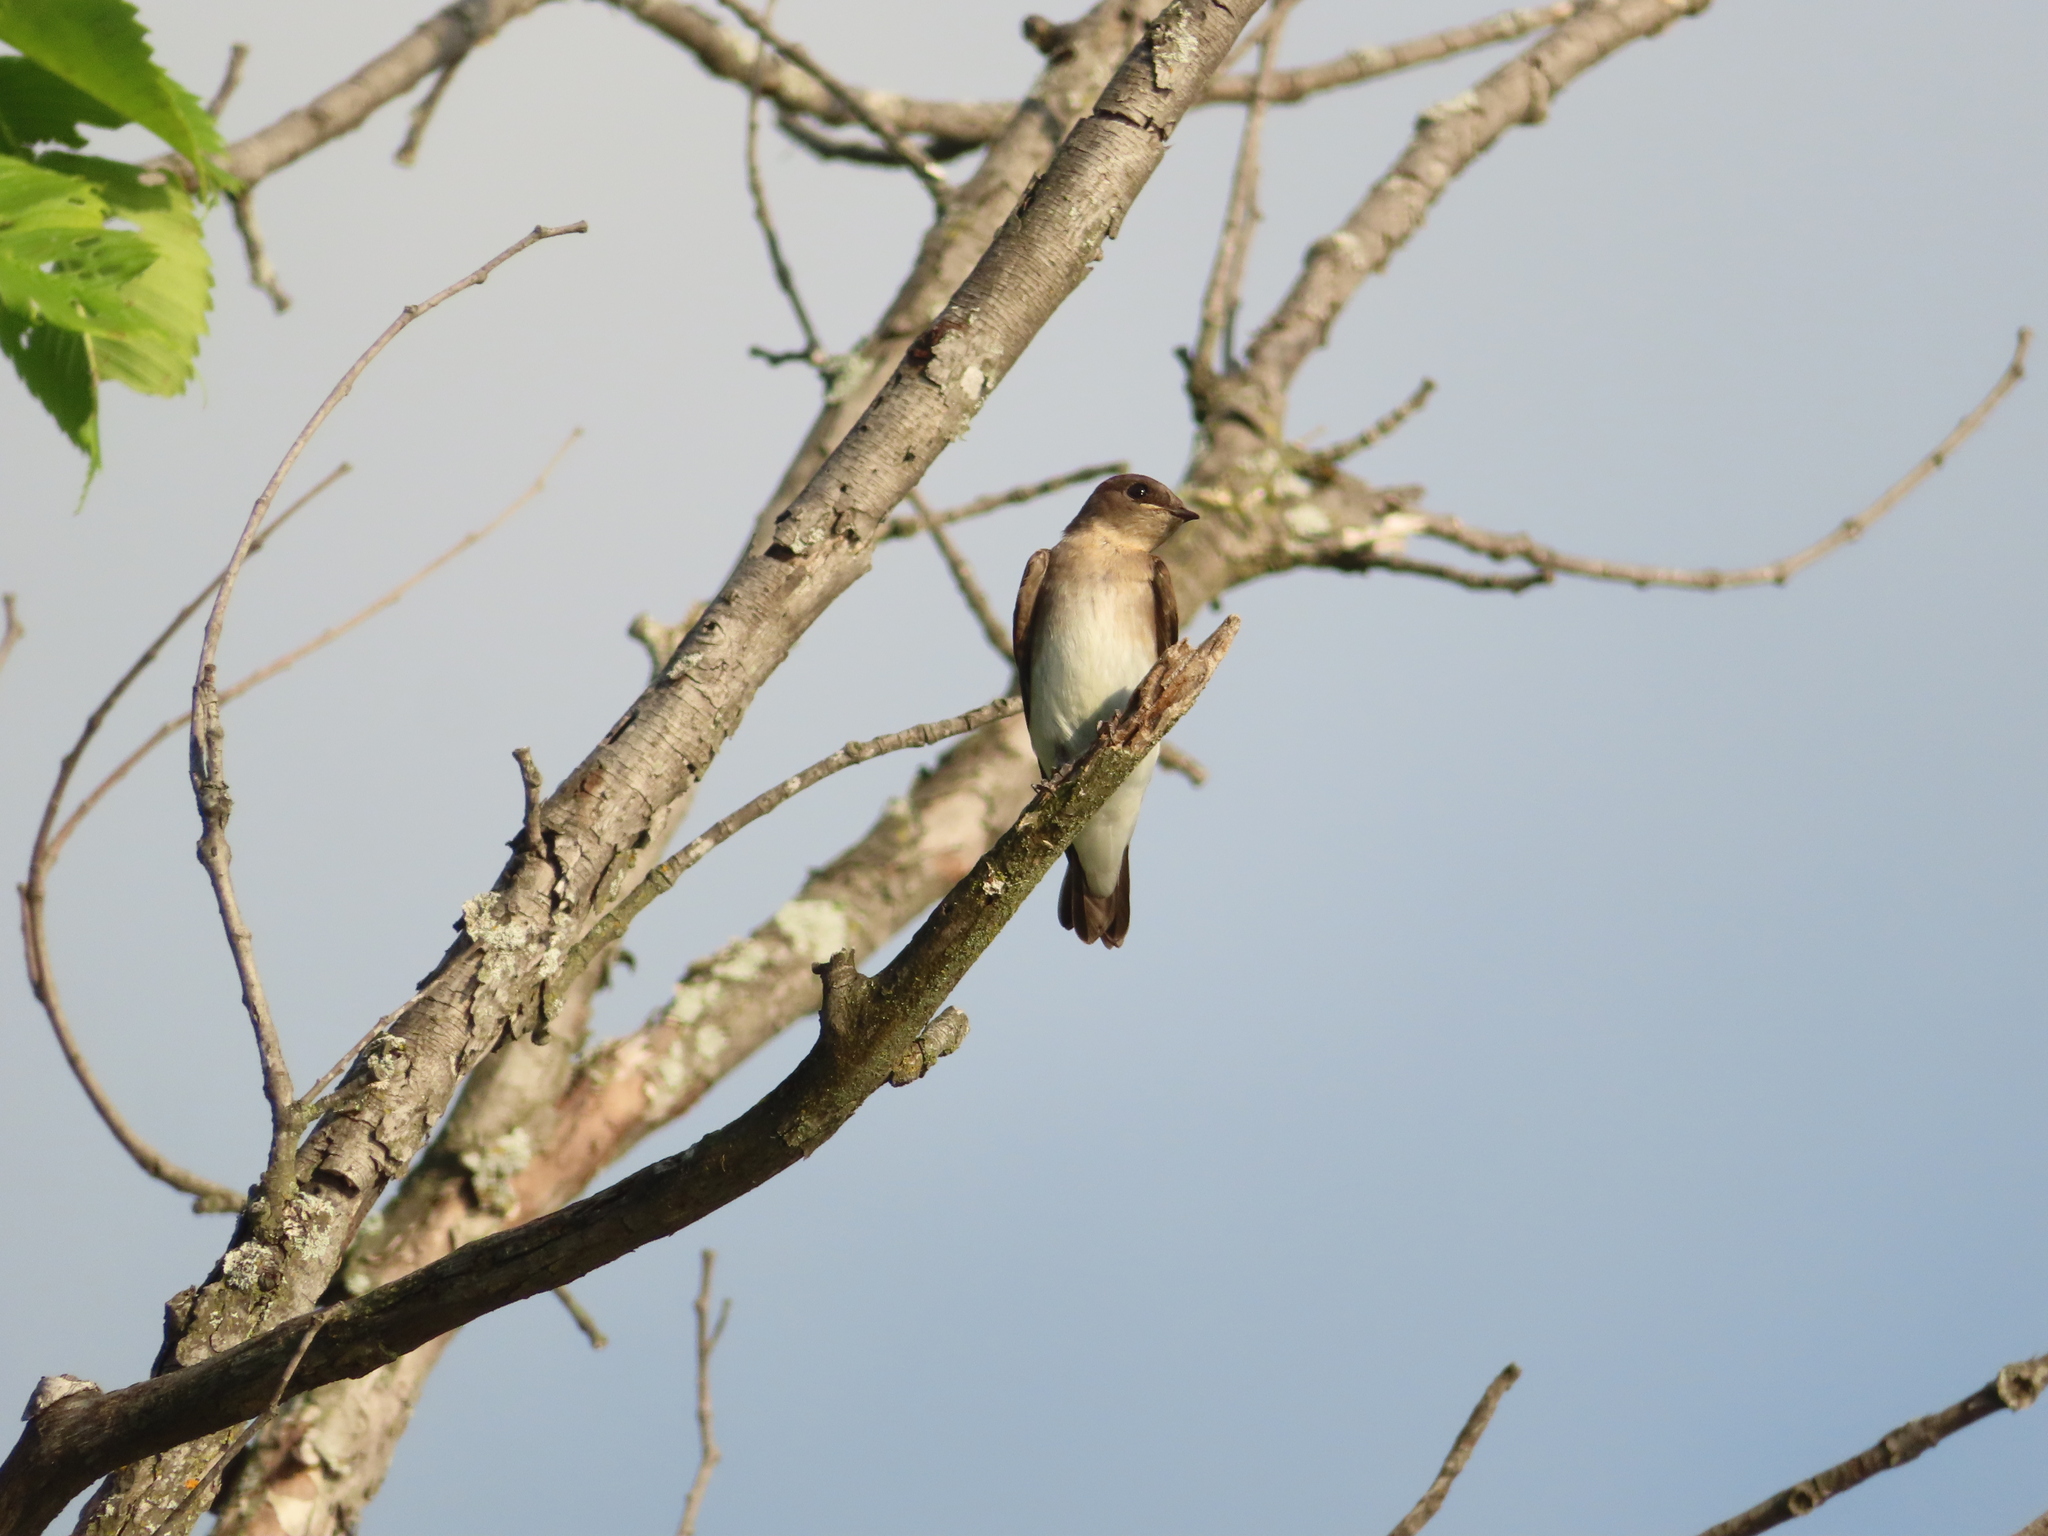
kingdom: Animalia
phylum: Chordata
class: Aves
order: Passeriformes
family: Hirundinidae
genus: Stelgidopteryx
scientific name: Stelgidopteryx serripennis
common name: Northern rough-winged swallow
